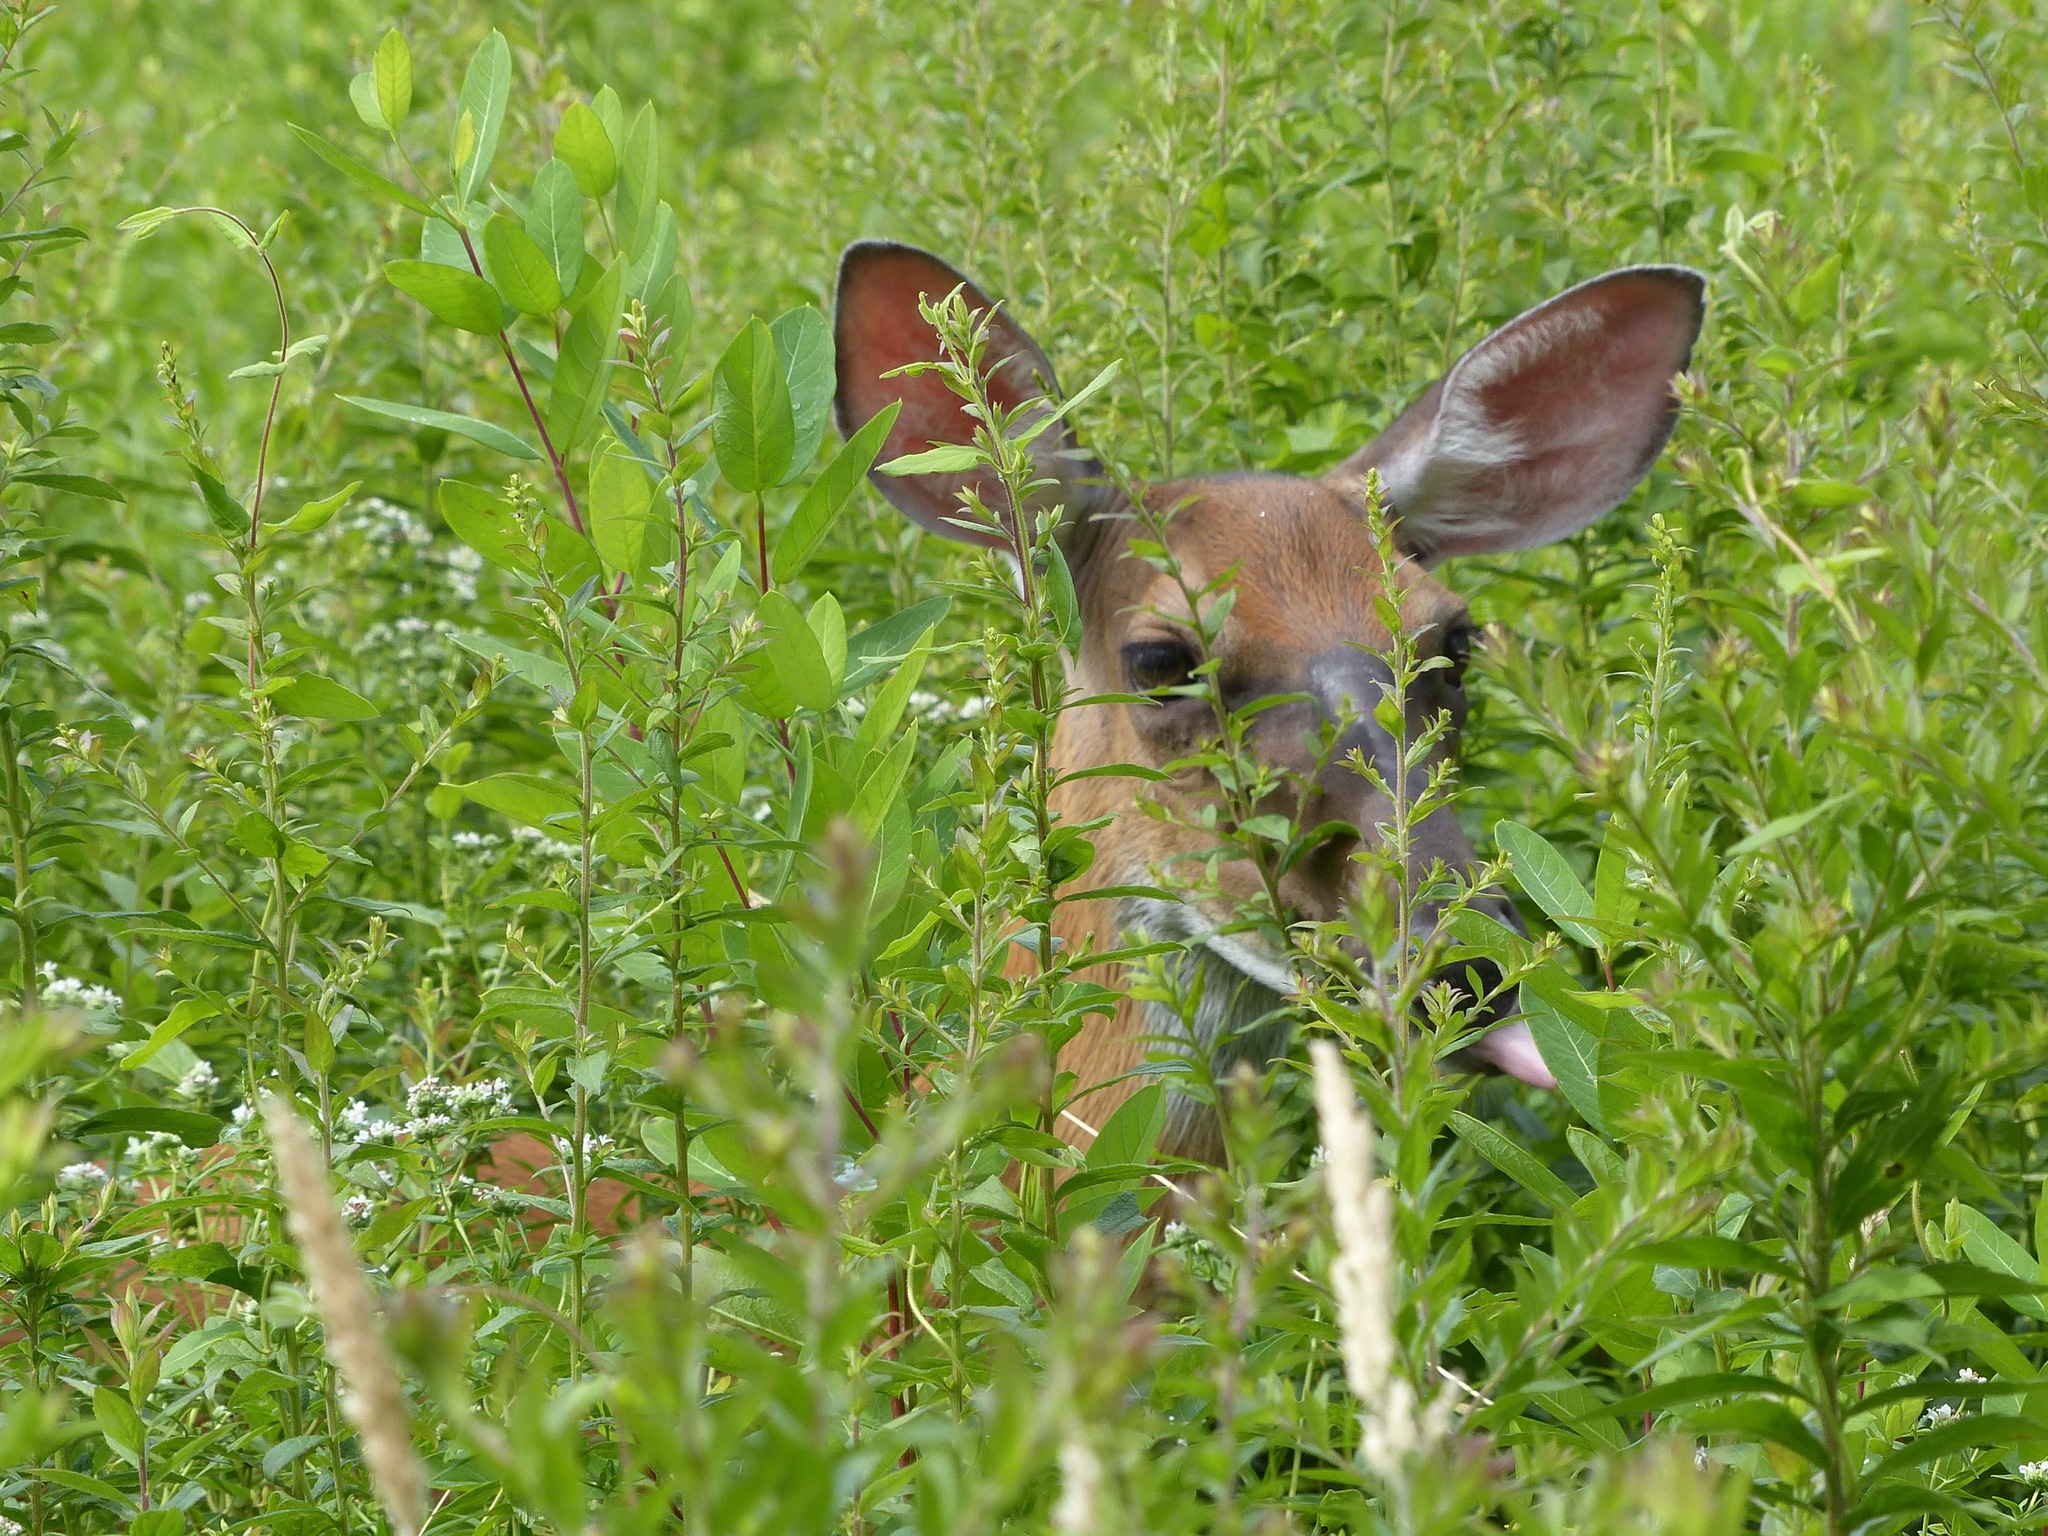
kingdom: Animalia
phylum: Chordata
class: Mammalia
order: Artiodactyla
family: Cervidae
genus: Odocoileus
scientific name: Odocoileus virginianus
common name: White-tailed deer
